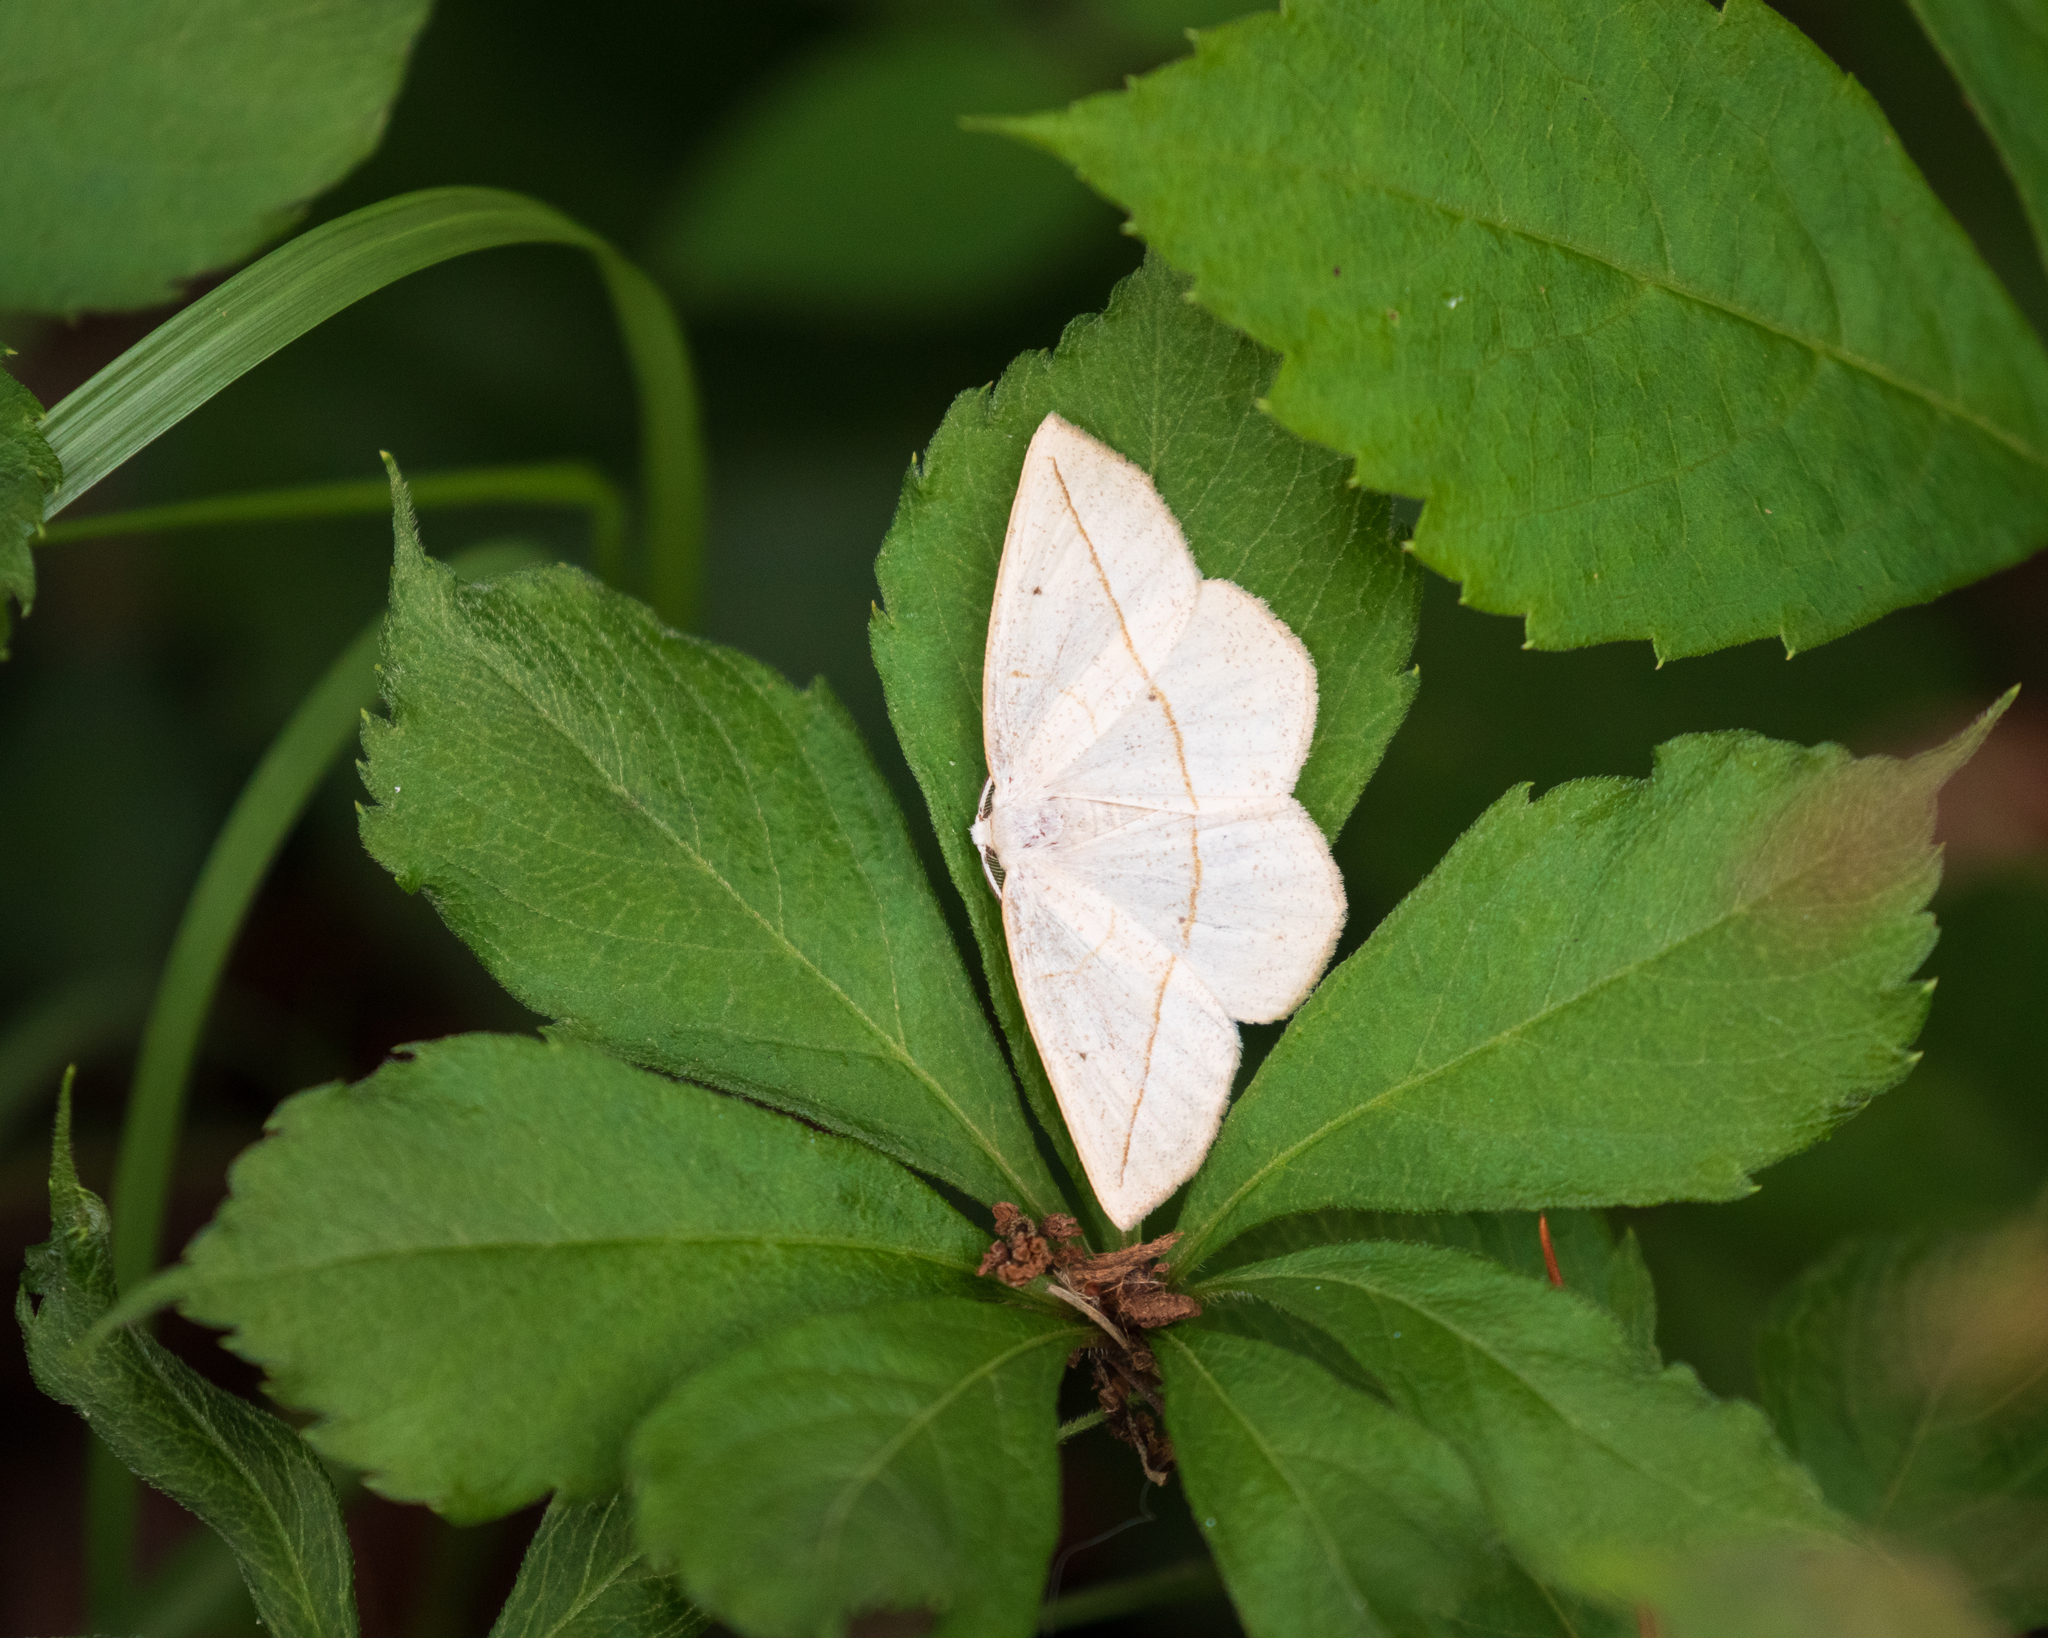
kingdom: Animalia
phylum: Arthropoda
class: Insecta
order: Lepidoptera
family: Geometridae
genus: Eusarca
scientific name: Eusarca confusaria
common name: Confused eusarca
